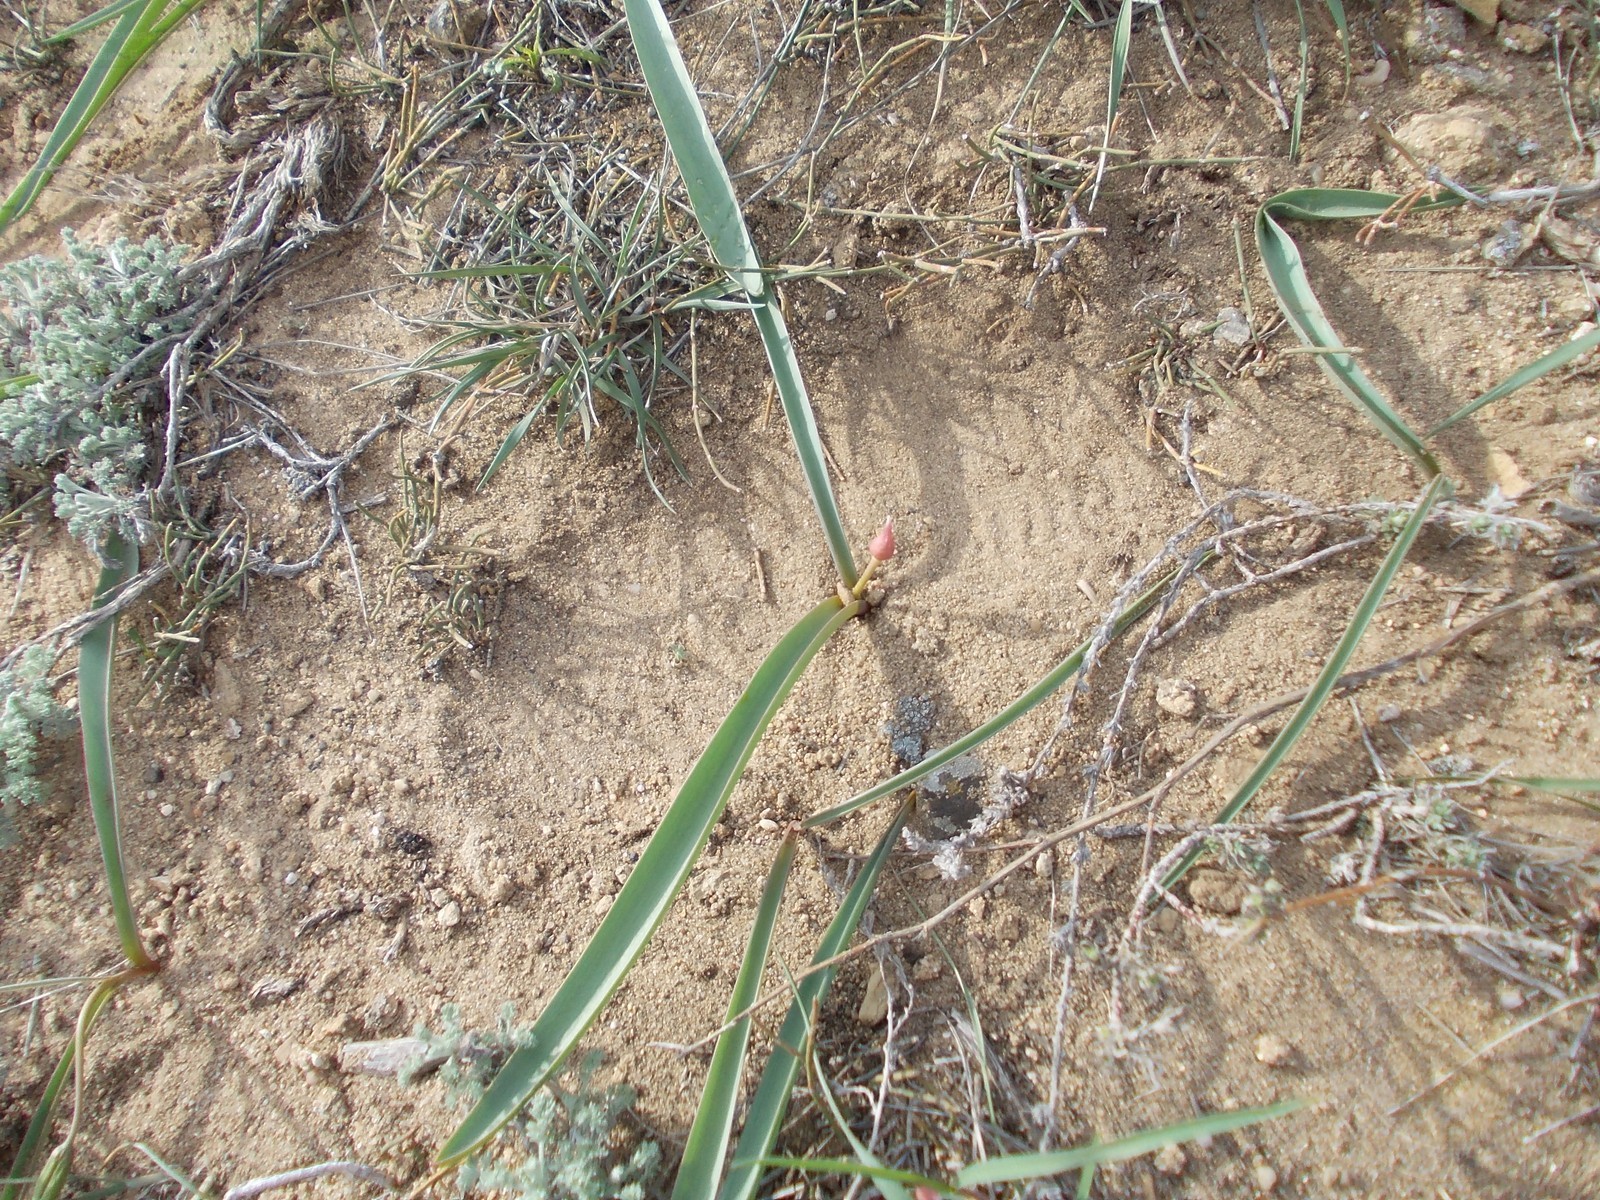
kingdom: Plantae
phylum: Tracheophyta
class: Liliopsida
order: Asparagales
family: Amaryllidaceae
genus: Allium
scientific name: Allium tulipifolium
